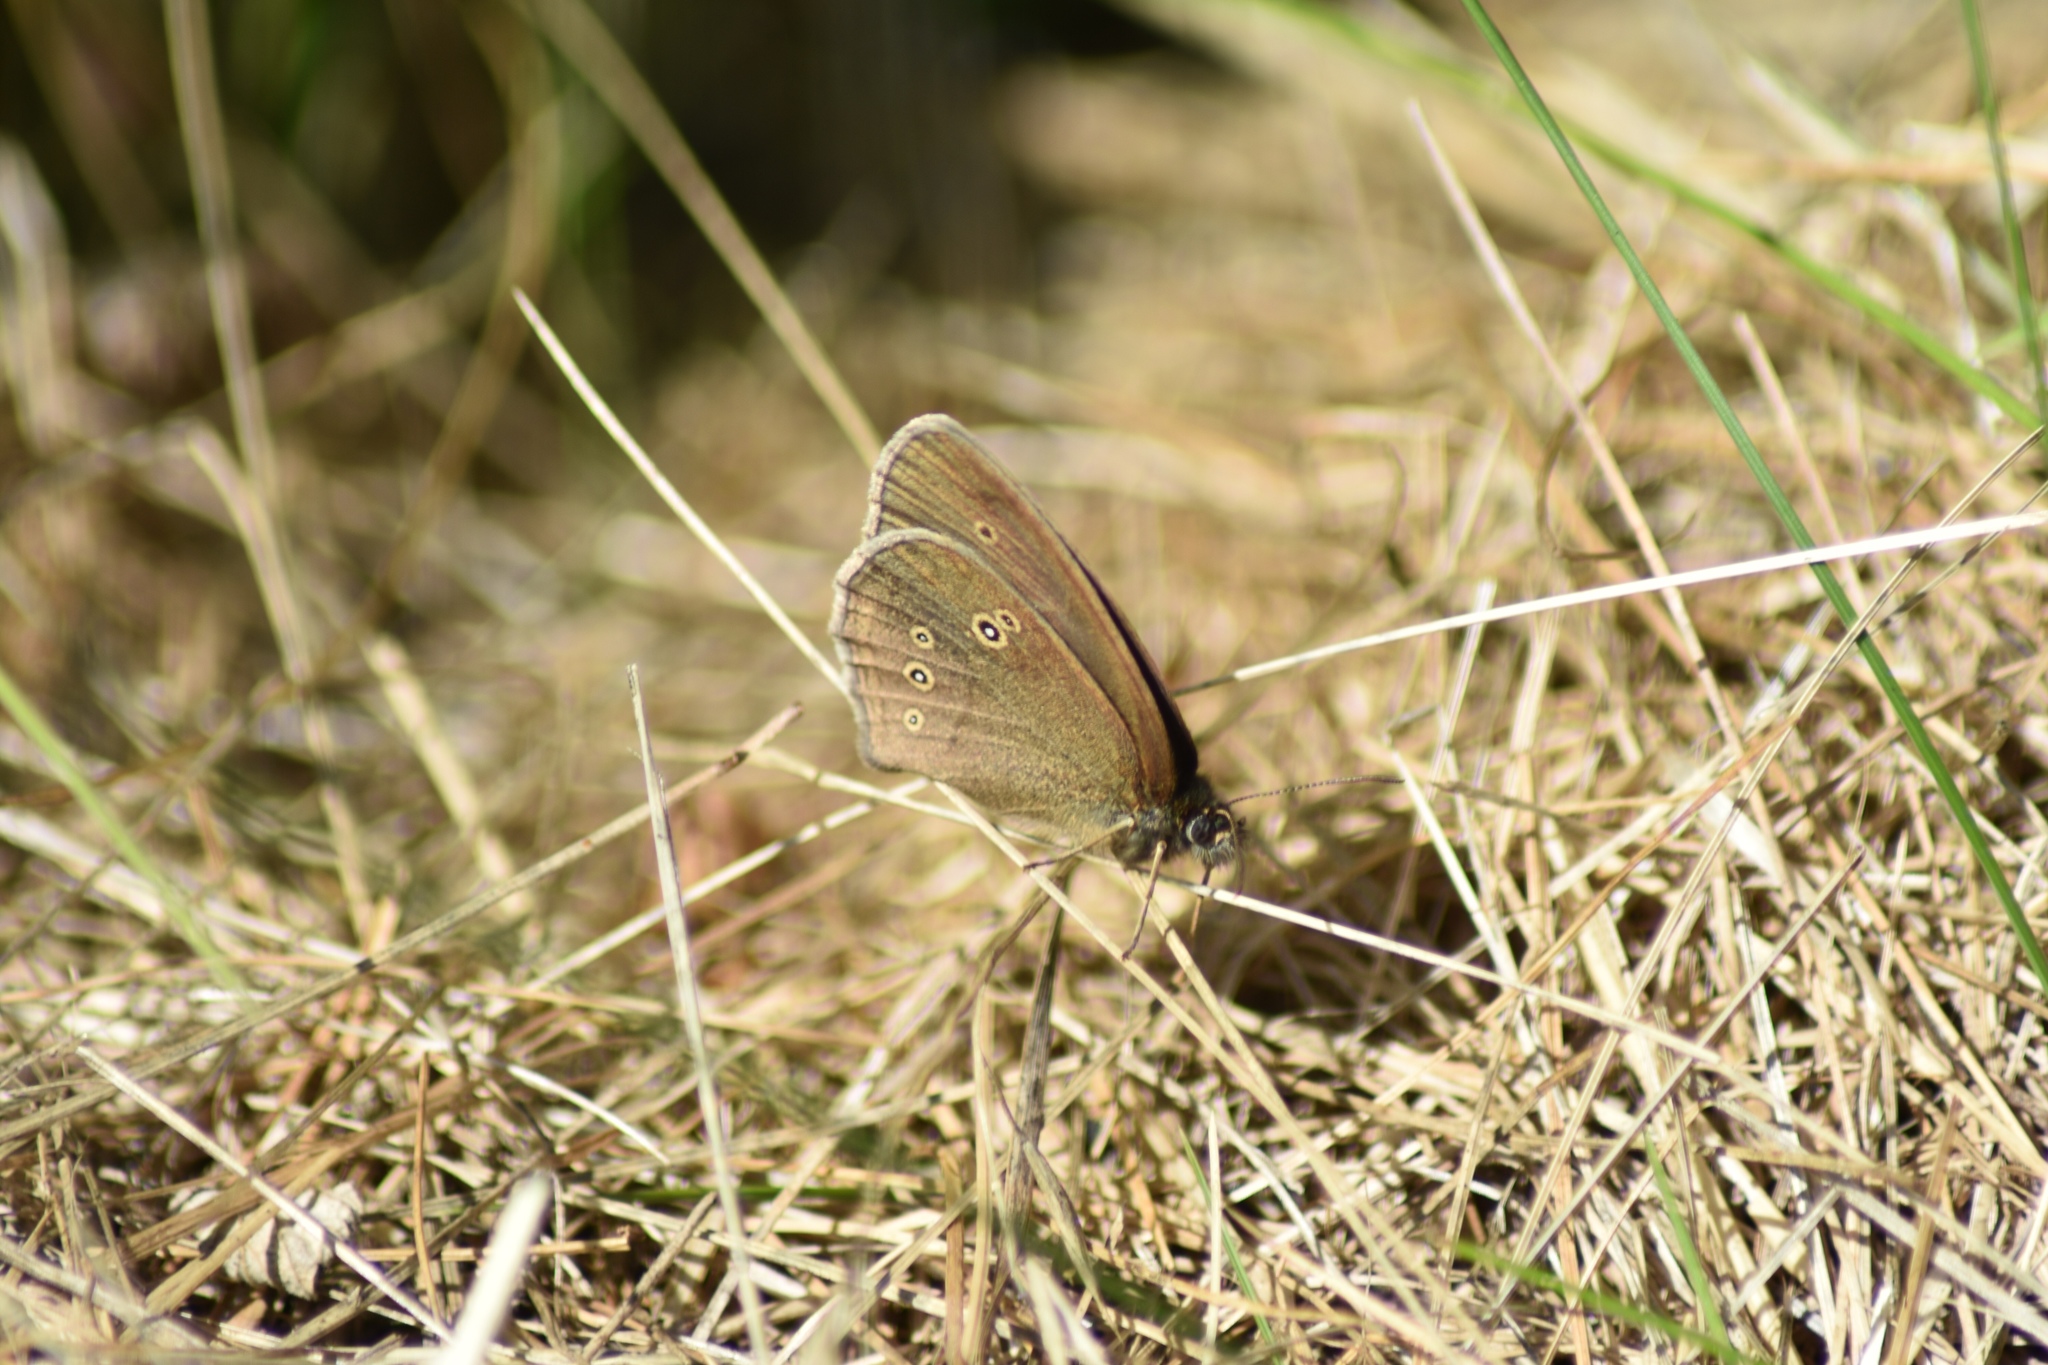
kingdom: Animalia
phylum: Arthropoda
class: Insecta
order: Lepidoptera
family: Nymphalidae
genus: Aphantopus
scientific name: Aphantopus hyperantus
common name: Ringlet
